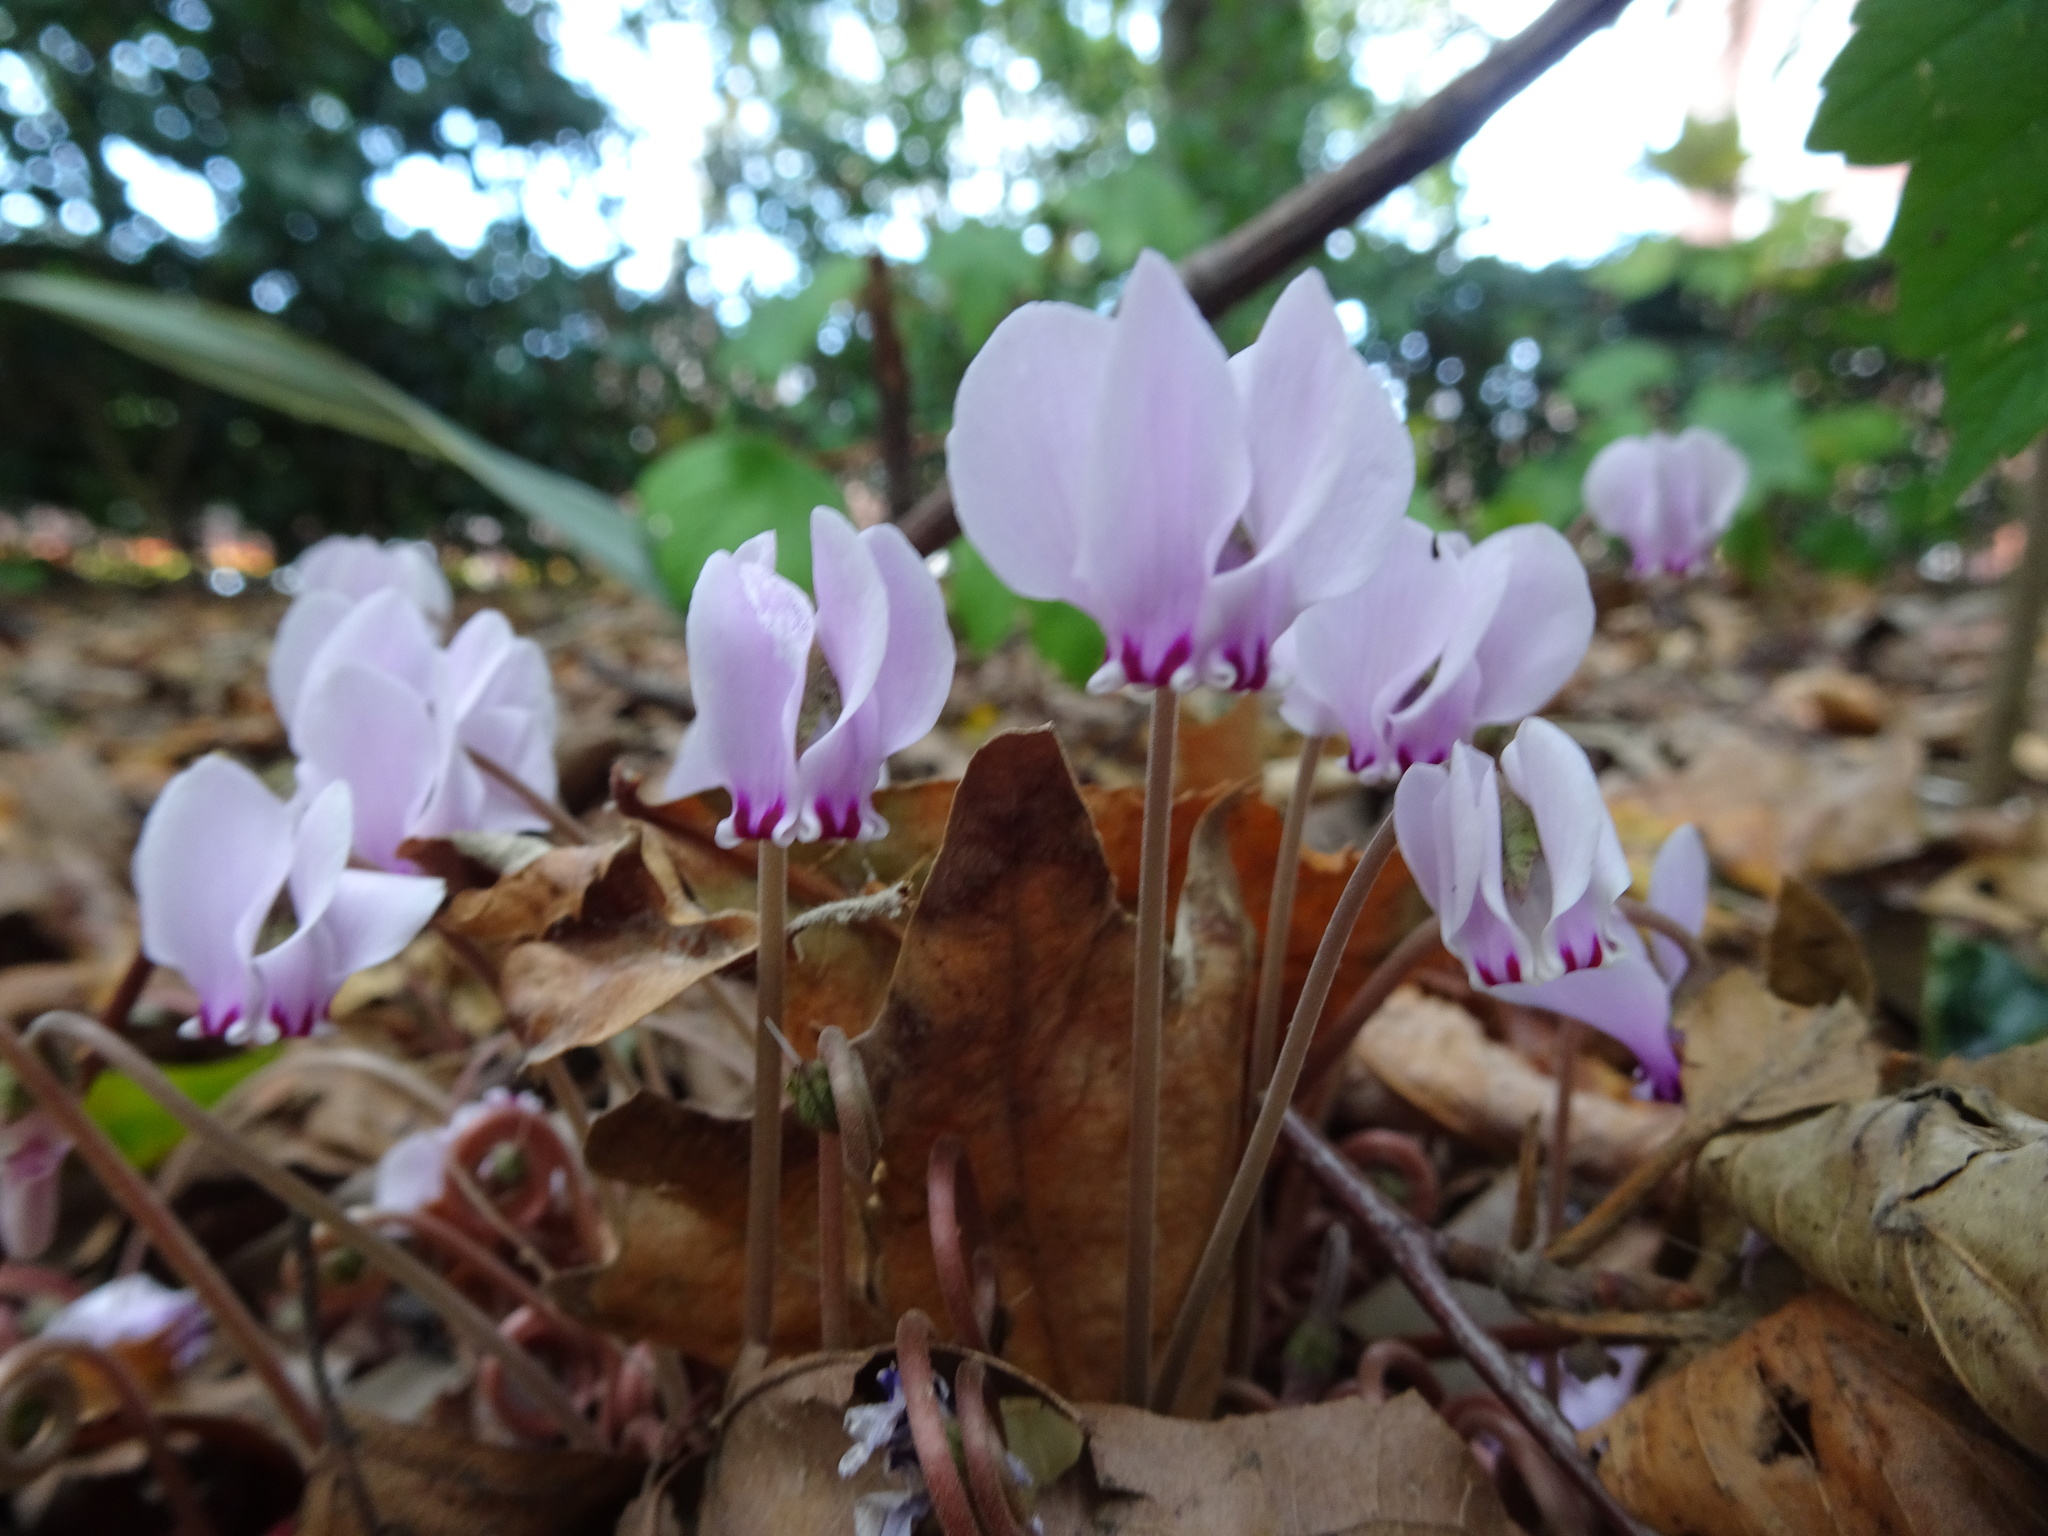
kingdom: Plantae
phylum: Tracheophyta
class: Magnoliopsida
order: Ericales
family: Primulaceae
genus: Cyclamen
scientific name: Cyclamen hederifolium
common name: Sowbread
